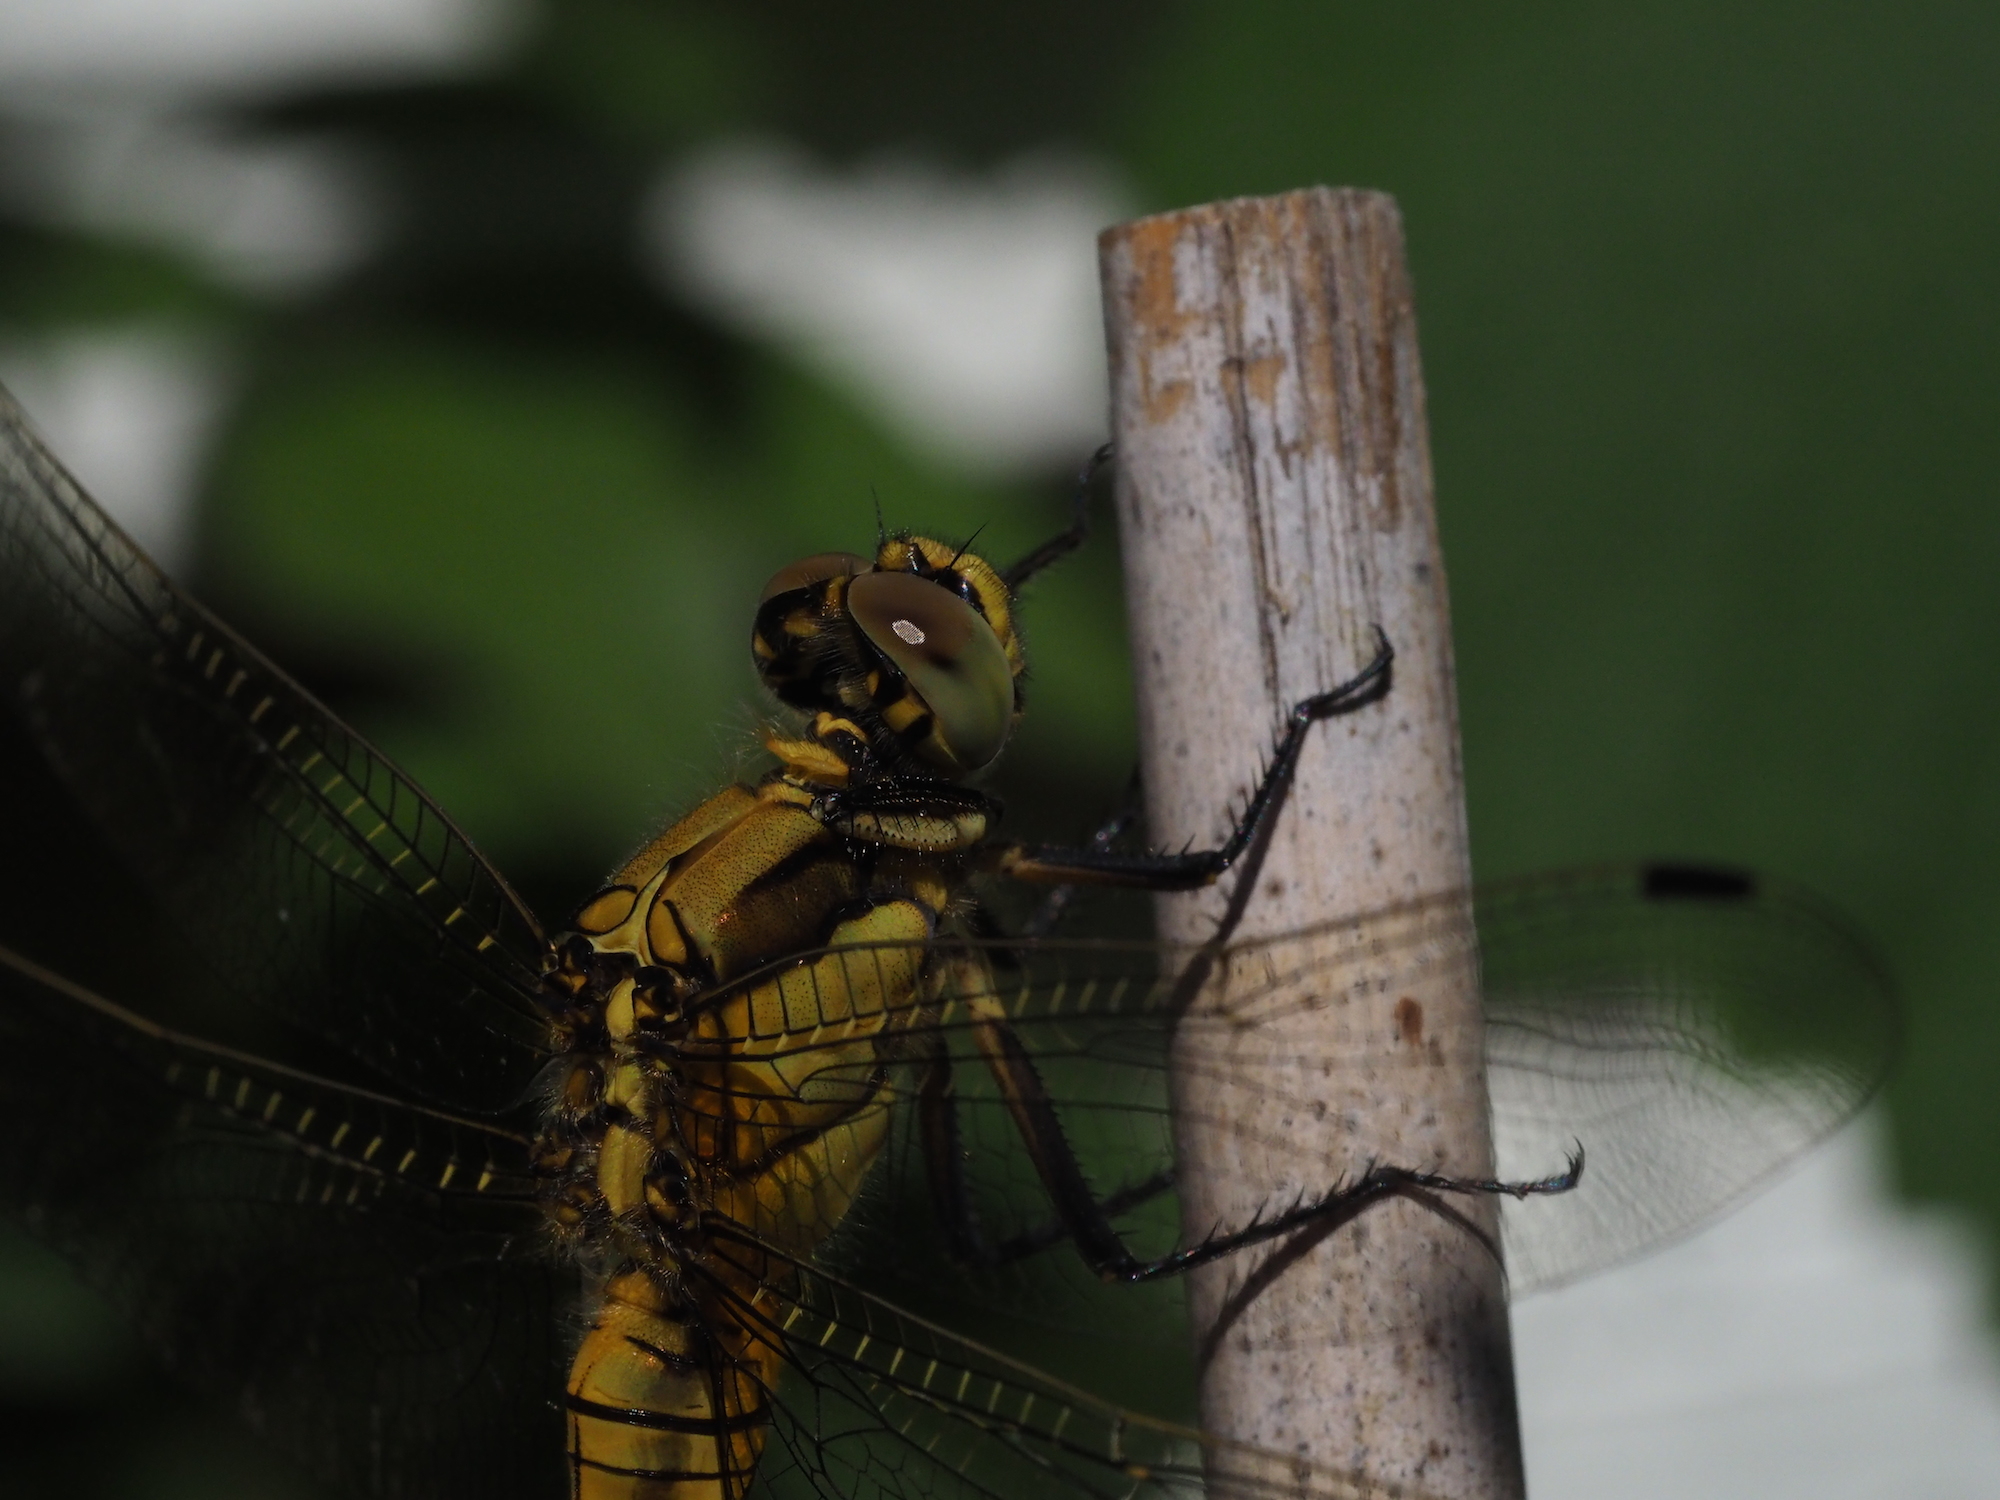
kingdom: Animalia
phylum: Arthropoda
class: Insecta
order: Odonata
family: Libellulidae
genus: Orthetrum
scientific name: Orthetrum cancellatum
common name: Black-tailed skimmer
